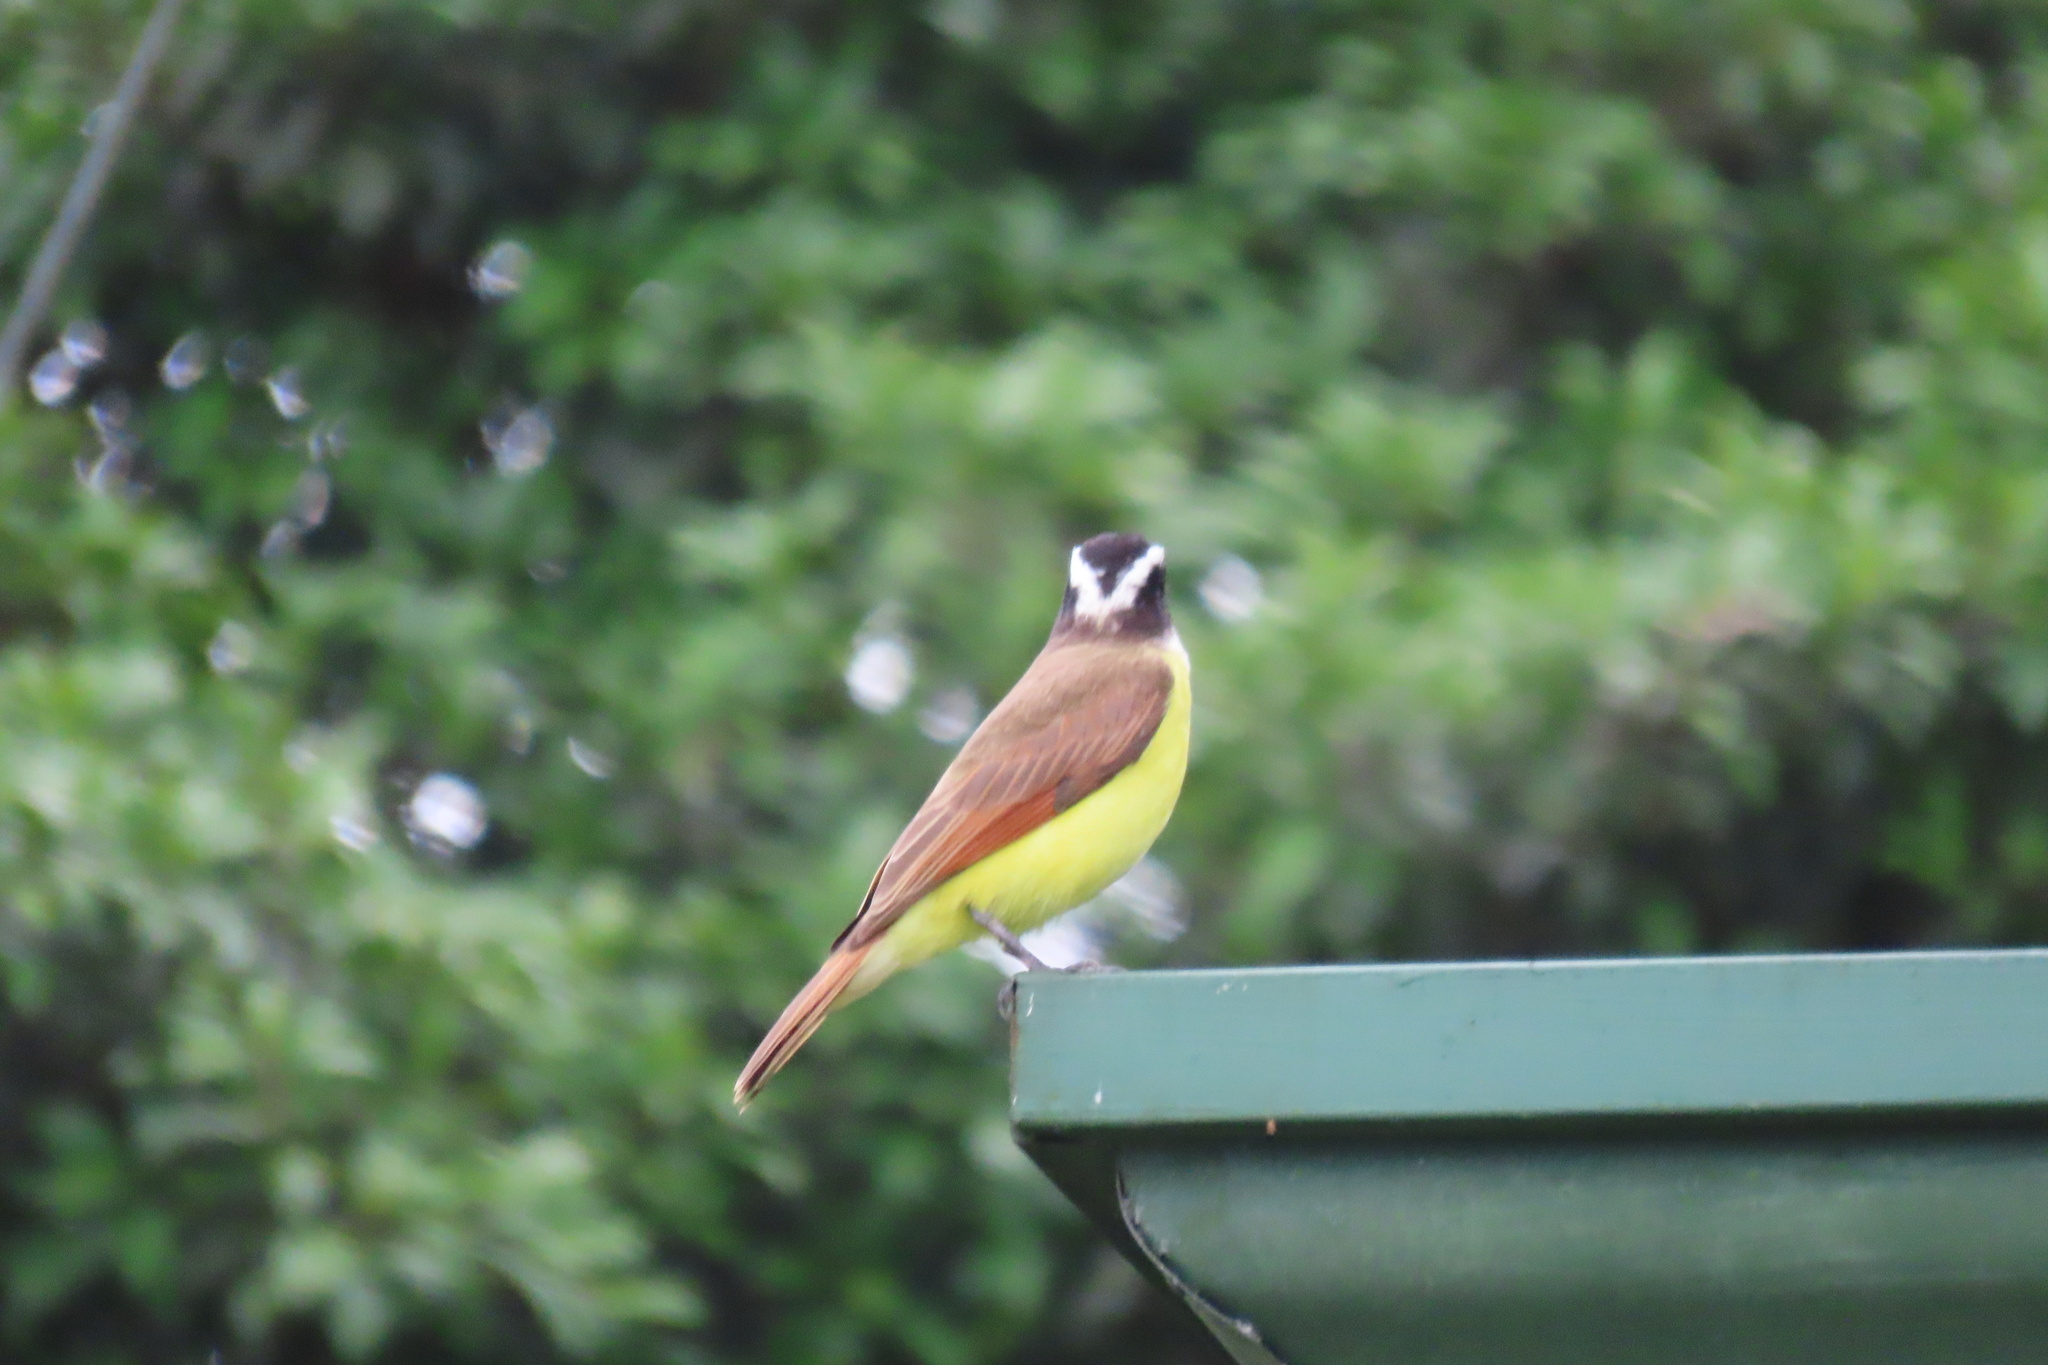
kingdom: Animalia
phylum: Chordata
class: Aves
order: Passeriformes
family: Tyrannidae
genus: Pitangus
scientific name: Pitangus sulphuratus
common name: Great kiskadee
